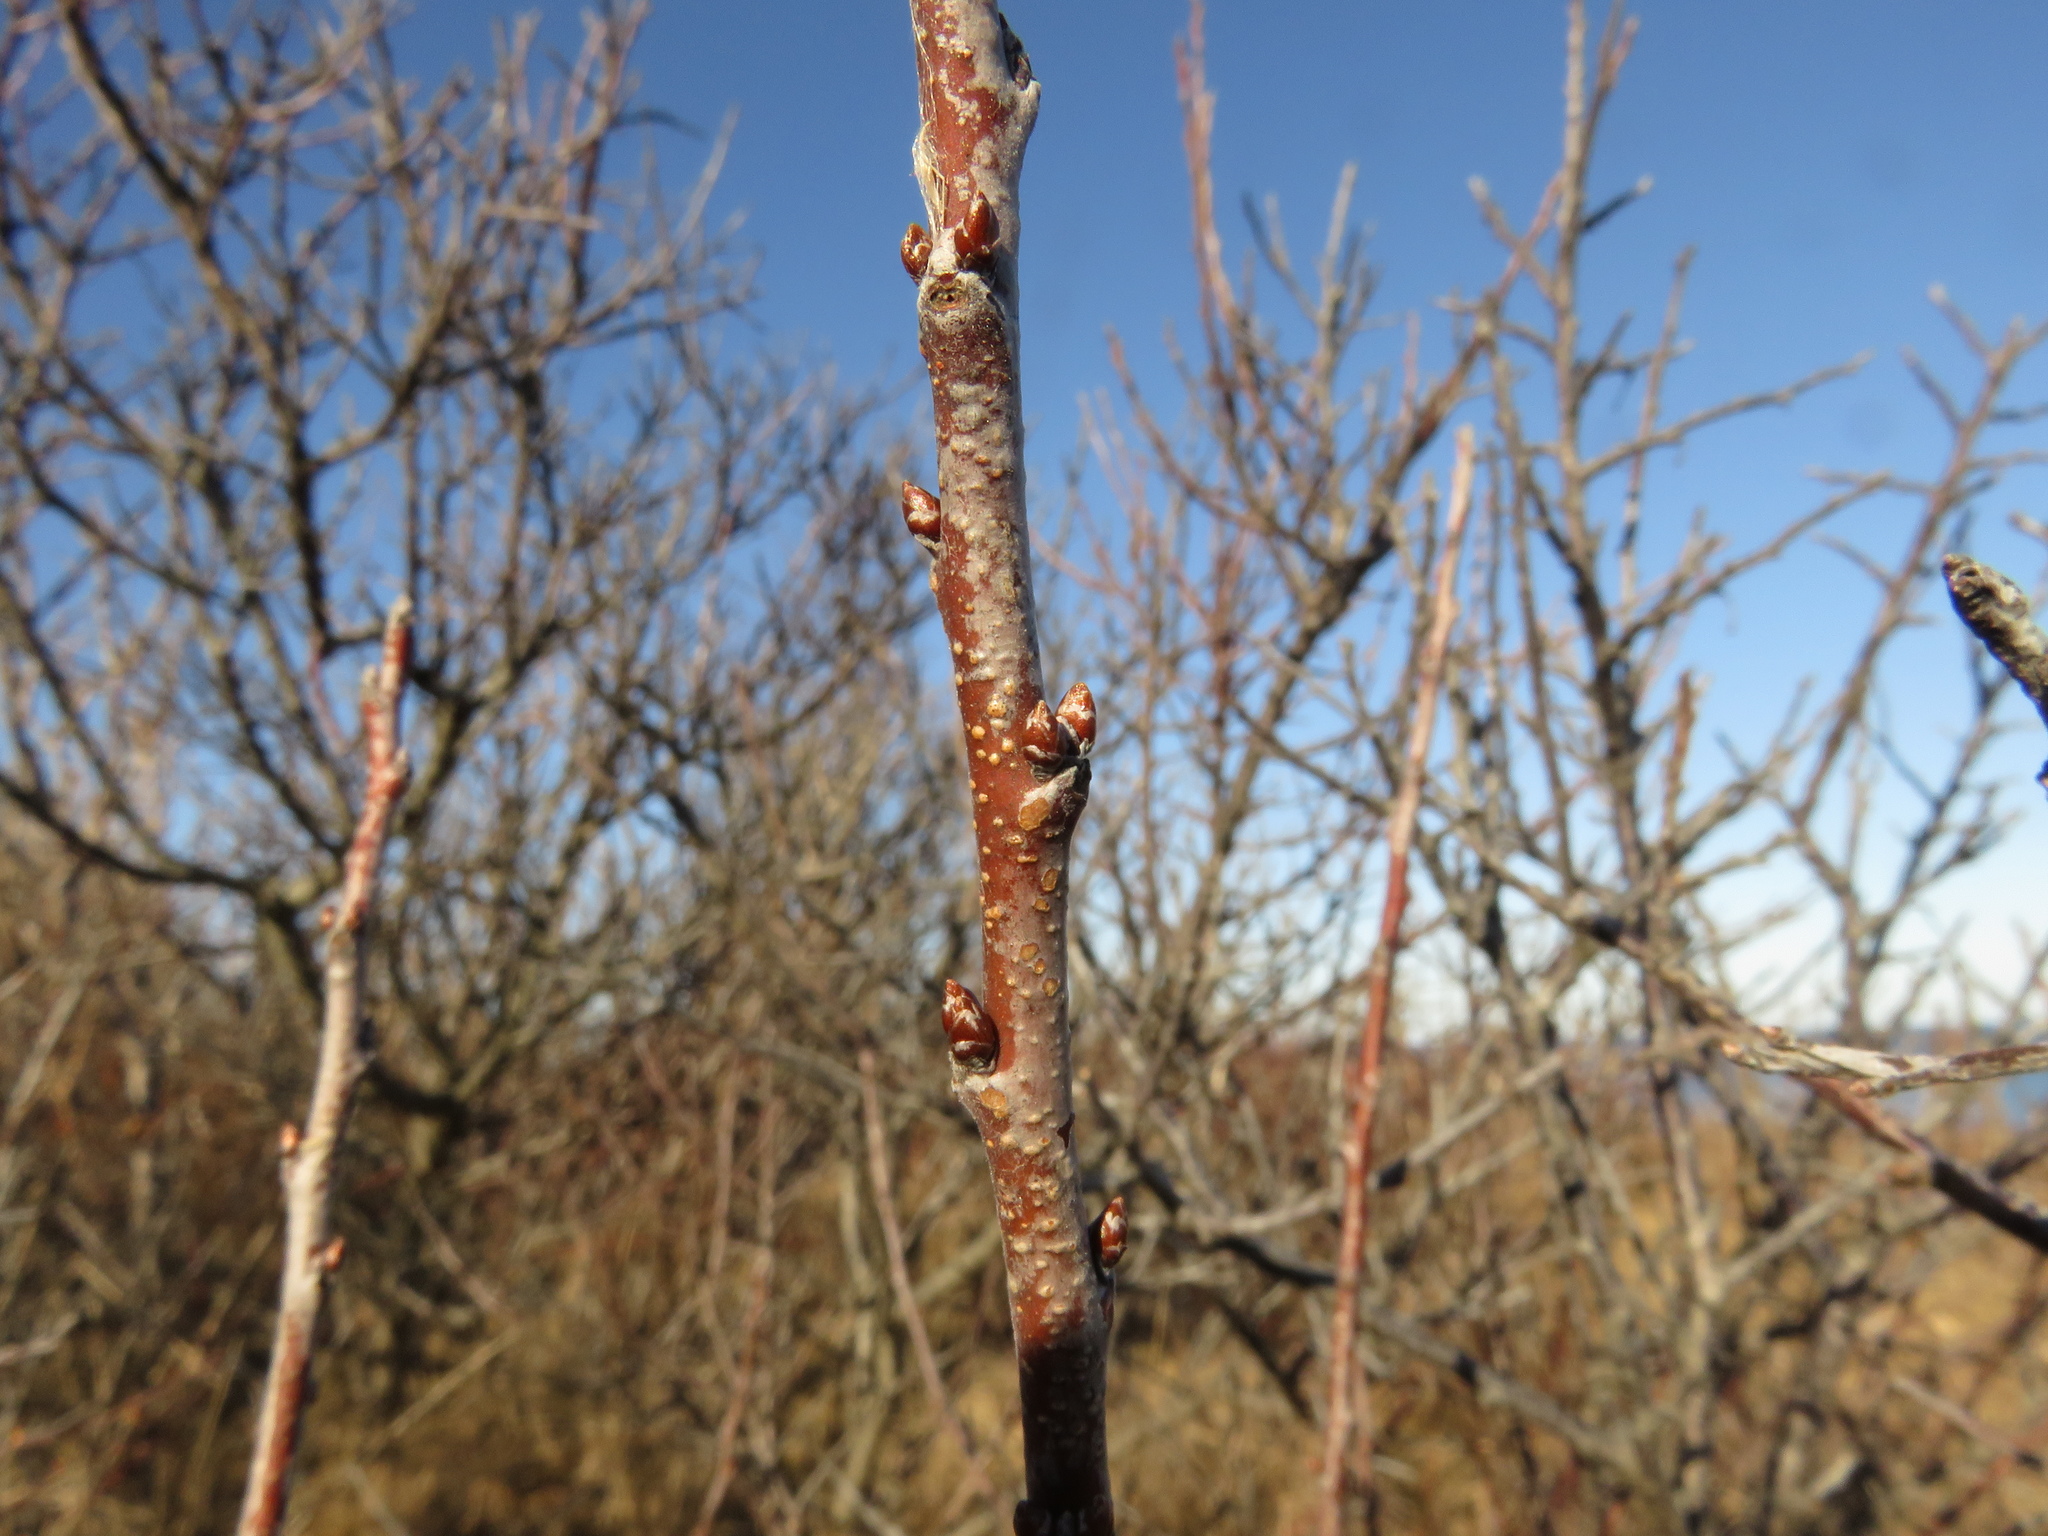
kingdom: Plantae
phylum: Tracheophyta
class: Magnoliopsida
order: Rosales
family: Rosaceae
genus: Prunus
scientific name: Prunus maritima
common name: Beach plum
